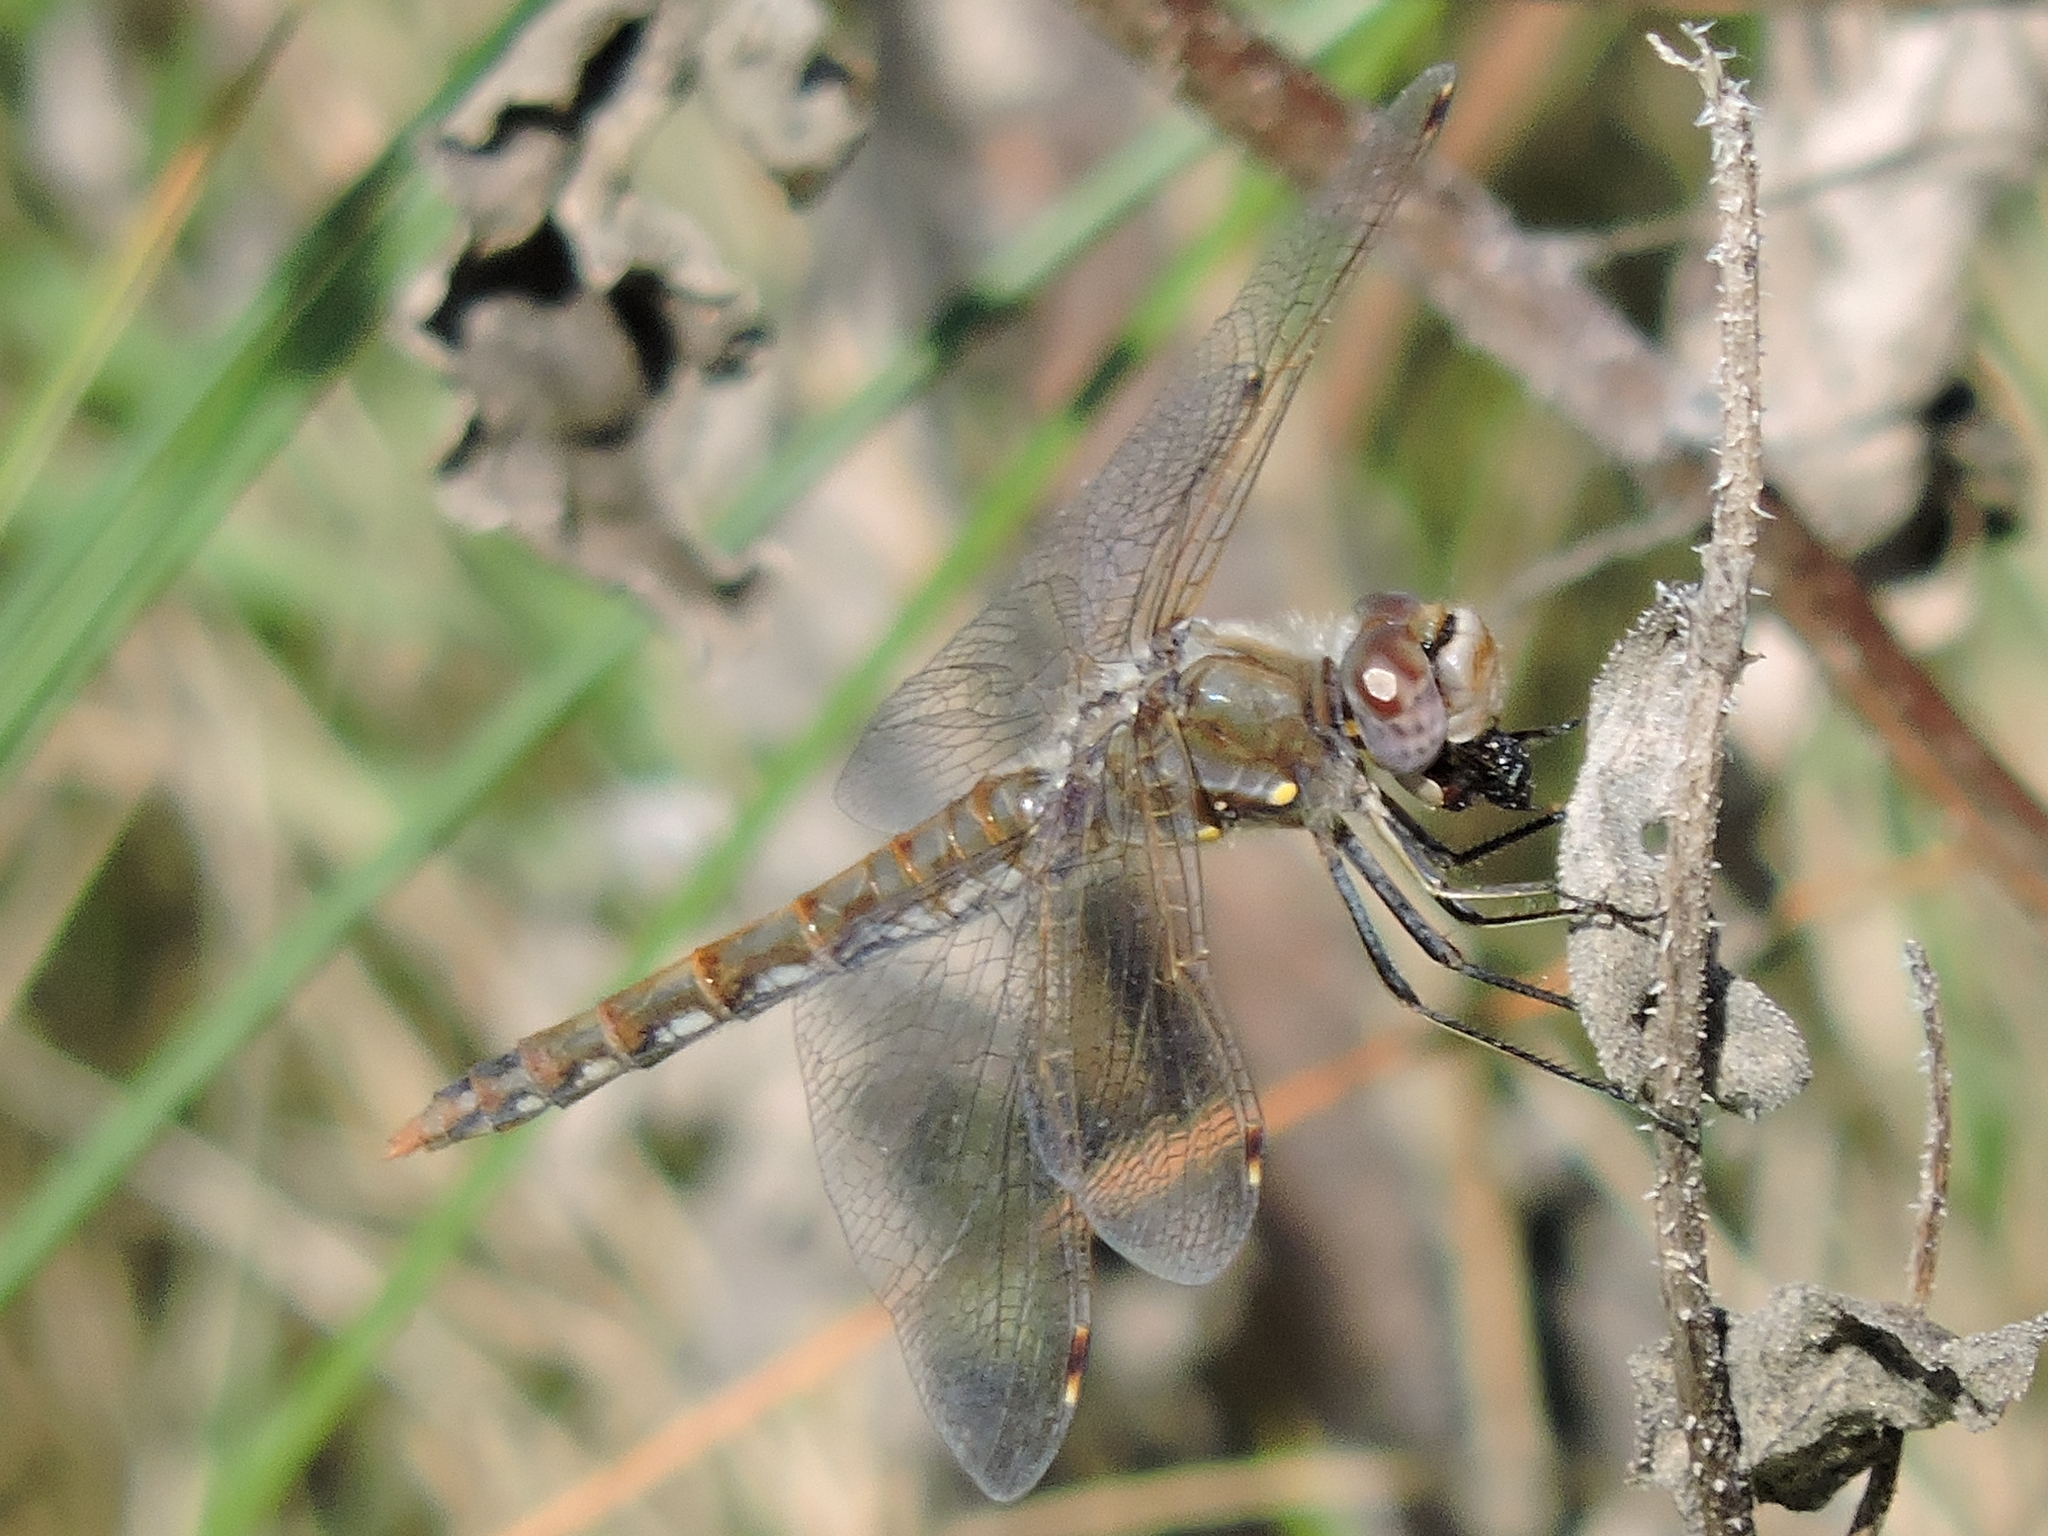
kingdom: Animalia
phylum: Arthropoda
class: Insecta
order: Odonata
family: Libellulidae
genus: Sympetrum
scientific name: Sympetrum corruptum
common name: Variegated meadowhawk
